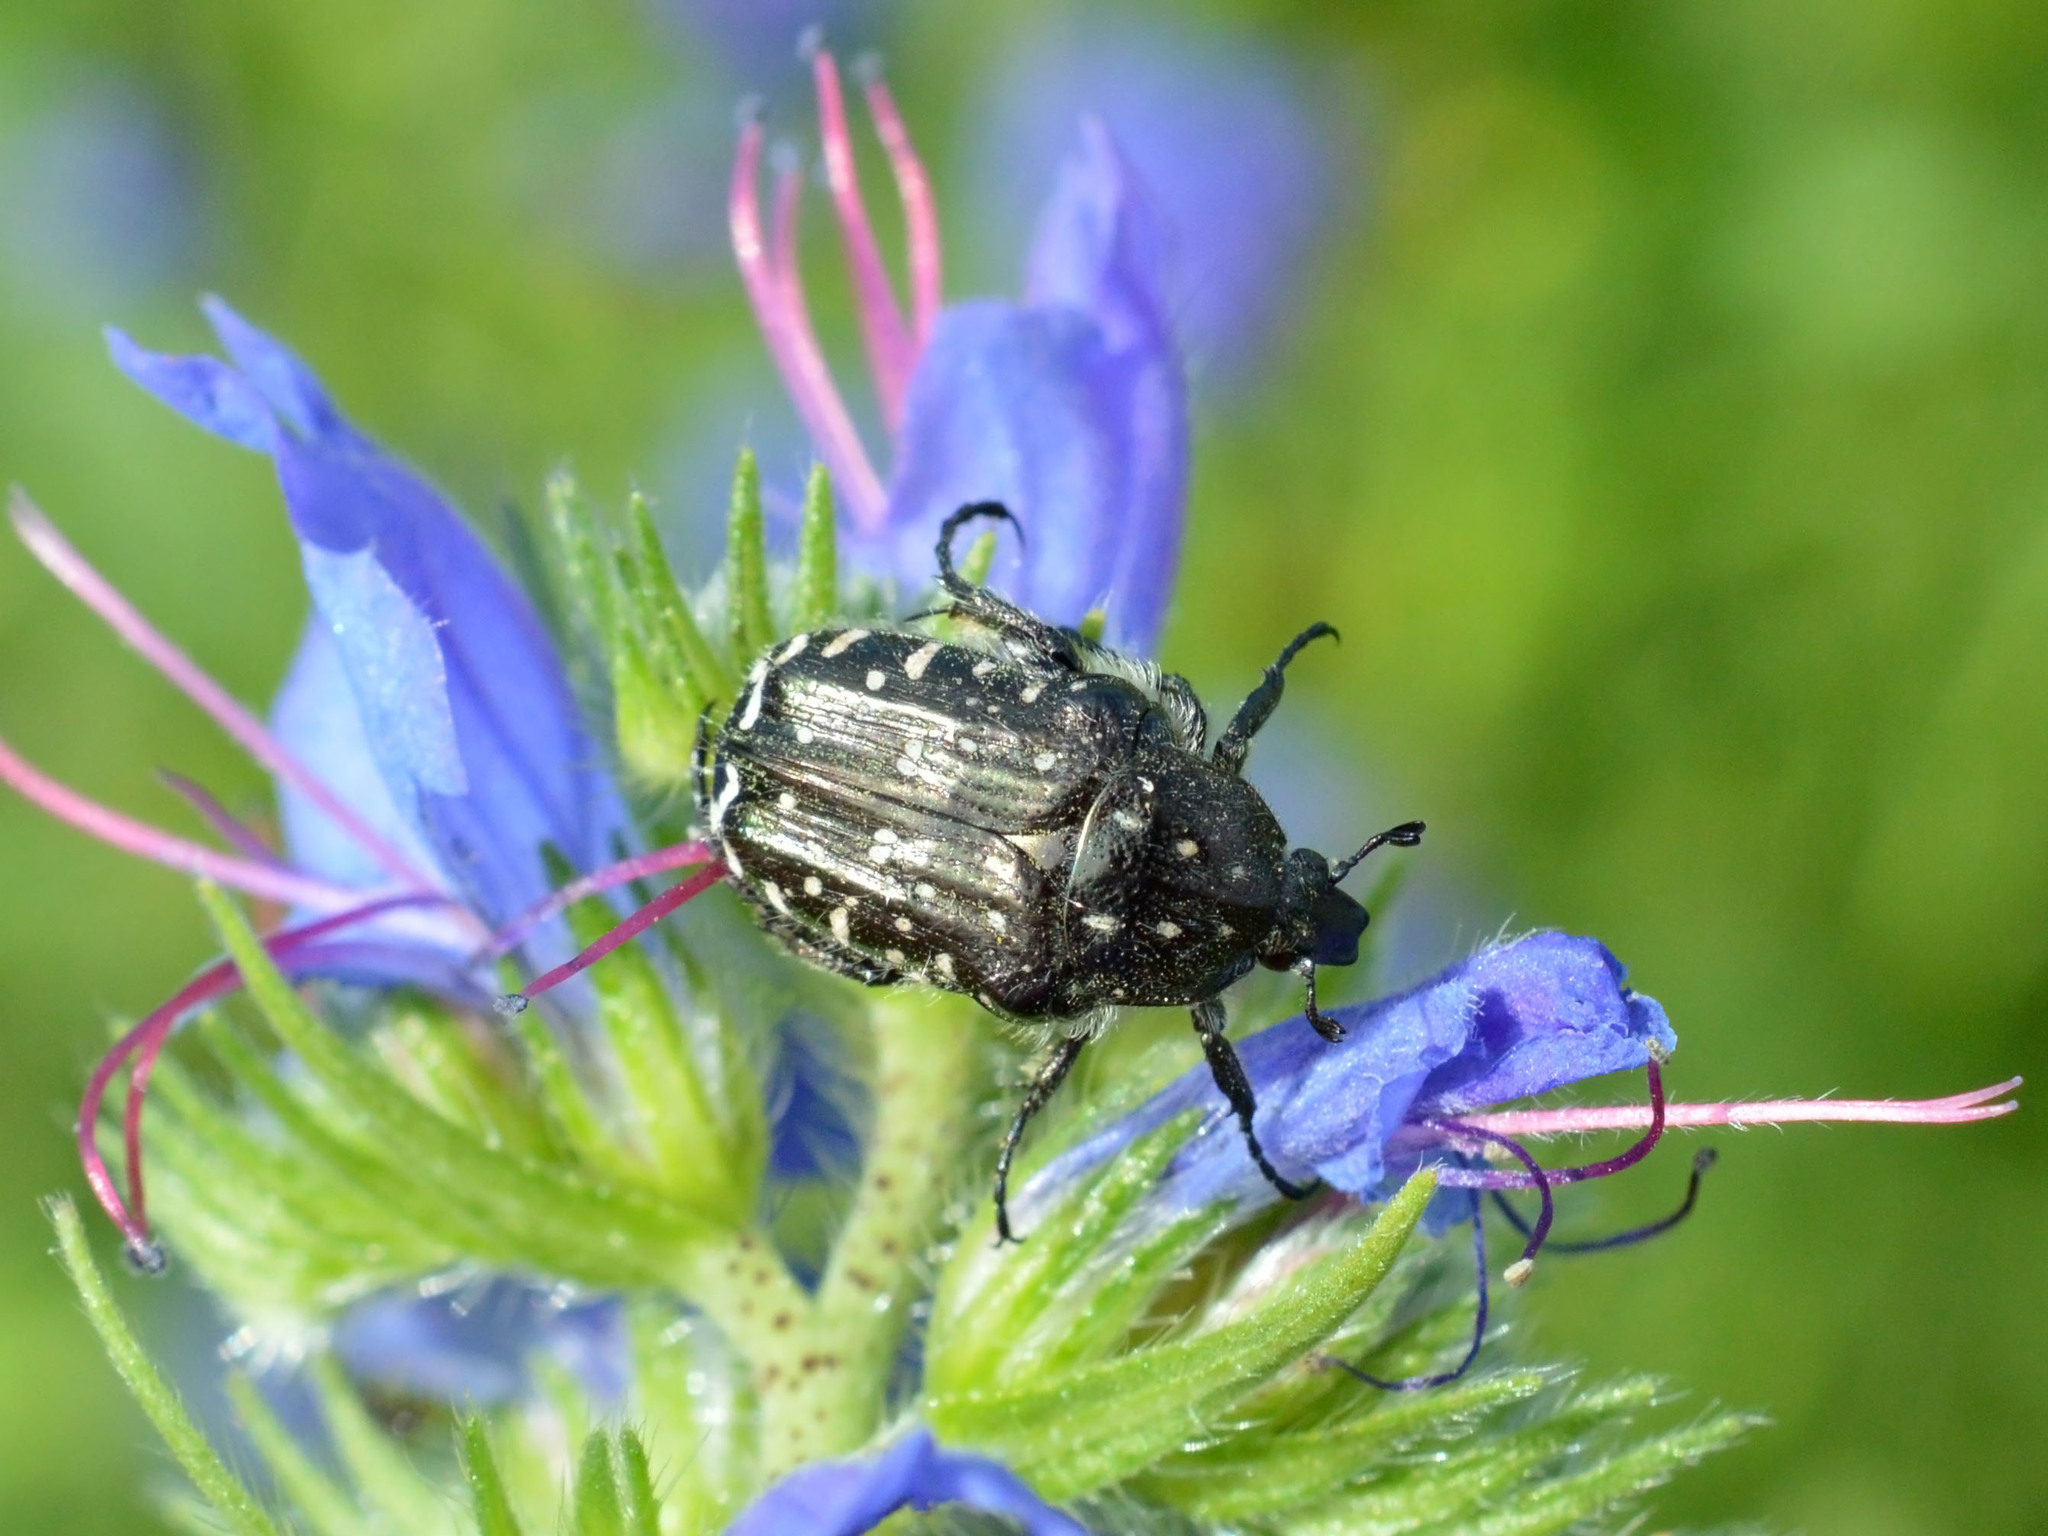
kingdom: Animalia
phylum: Arthropoda
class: Insecta
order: Coleoptera
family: Scarabaeidae
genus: Oxythyrea
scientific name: Oxythyrea funesta
